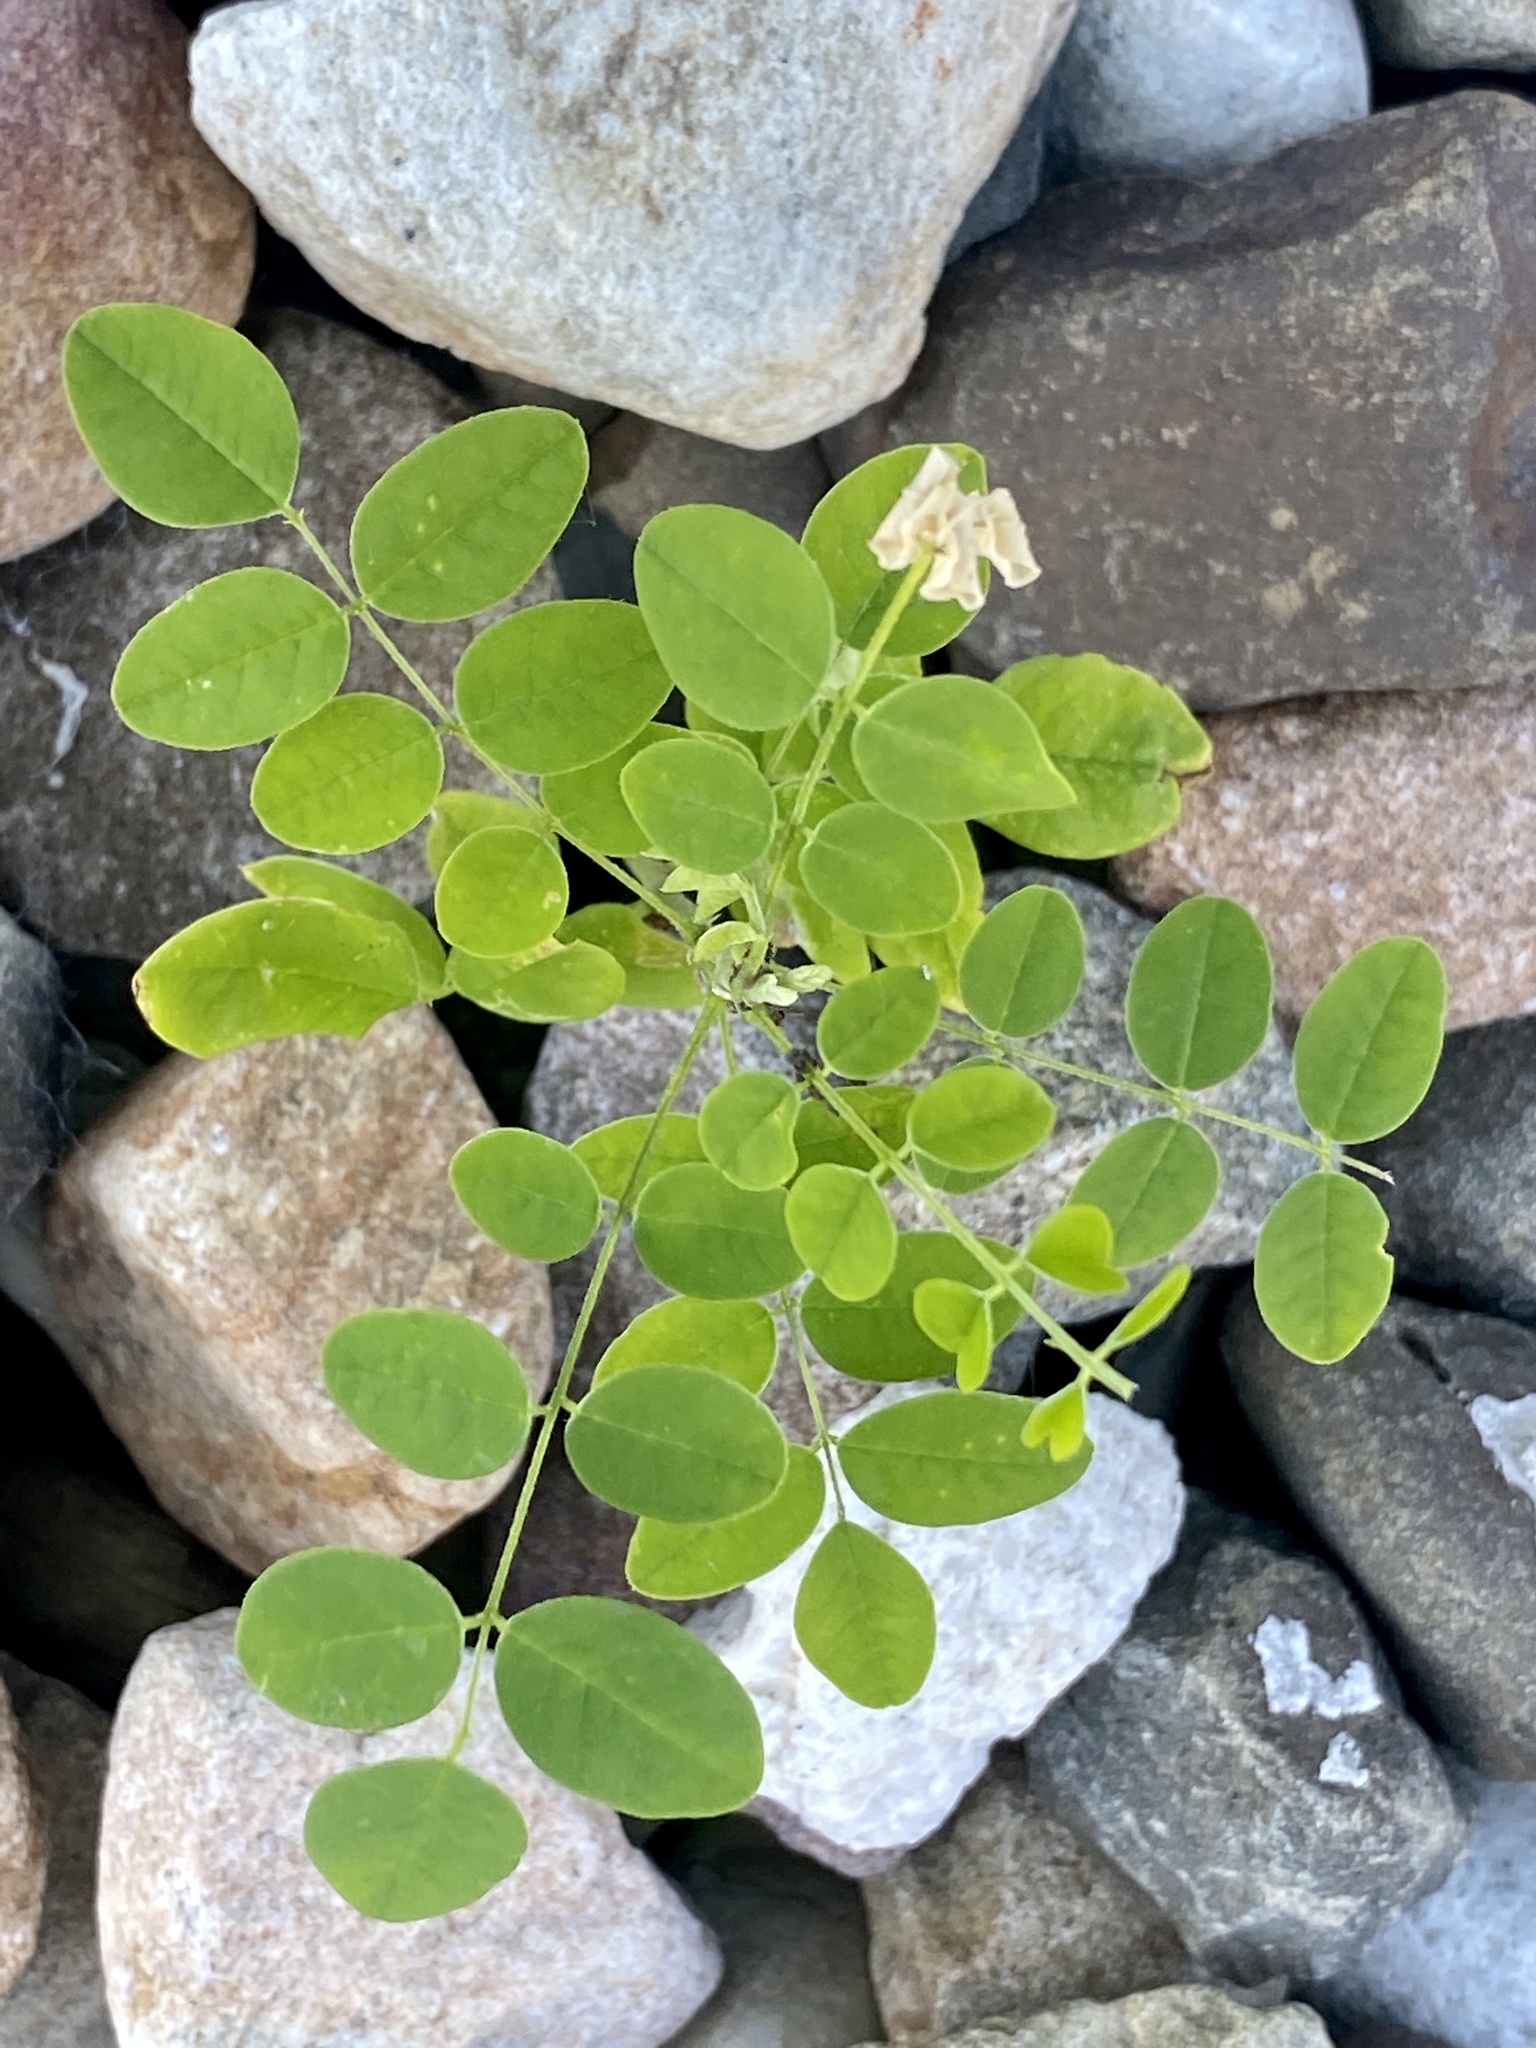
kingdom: Plantae
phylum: Tracheophyta
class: Magnoliopsida
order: Fabales
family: Fabaceae
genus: Robinia
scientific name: Robinia pseudoacacia
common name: Black locust
